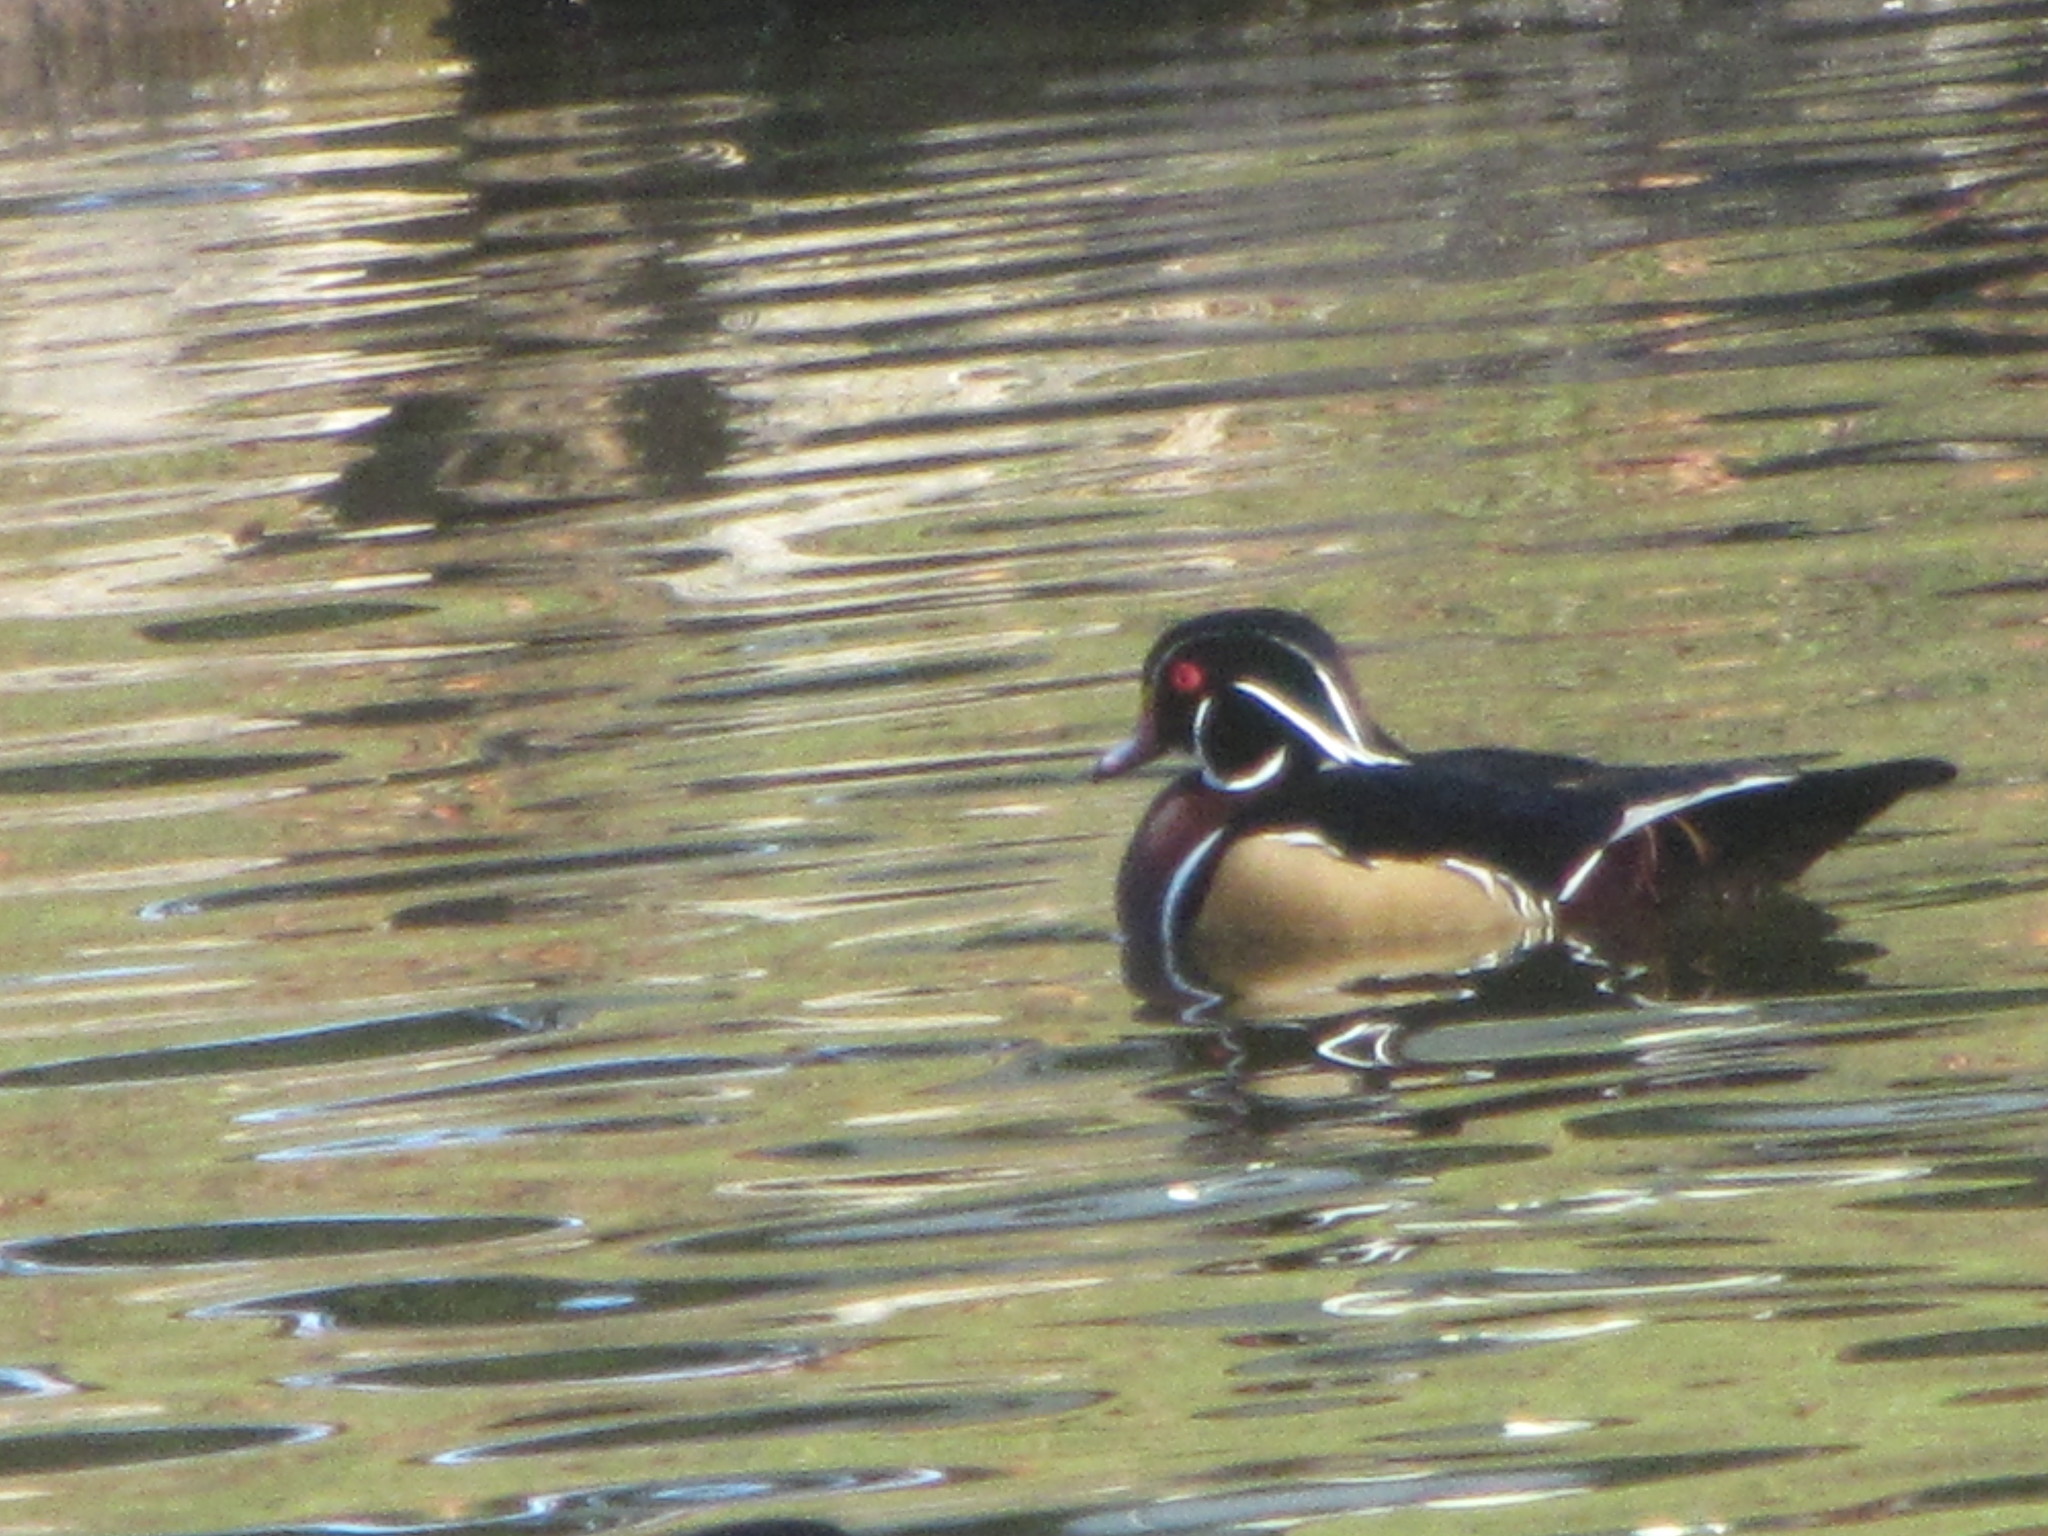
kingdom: Animalia
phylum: Chordata
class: Aves
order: Anseriformes
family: Anatidae
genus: Aix
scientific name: Aix sponsa
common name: Wood duck
